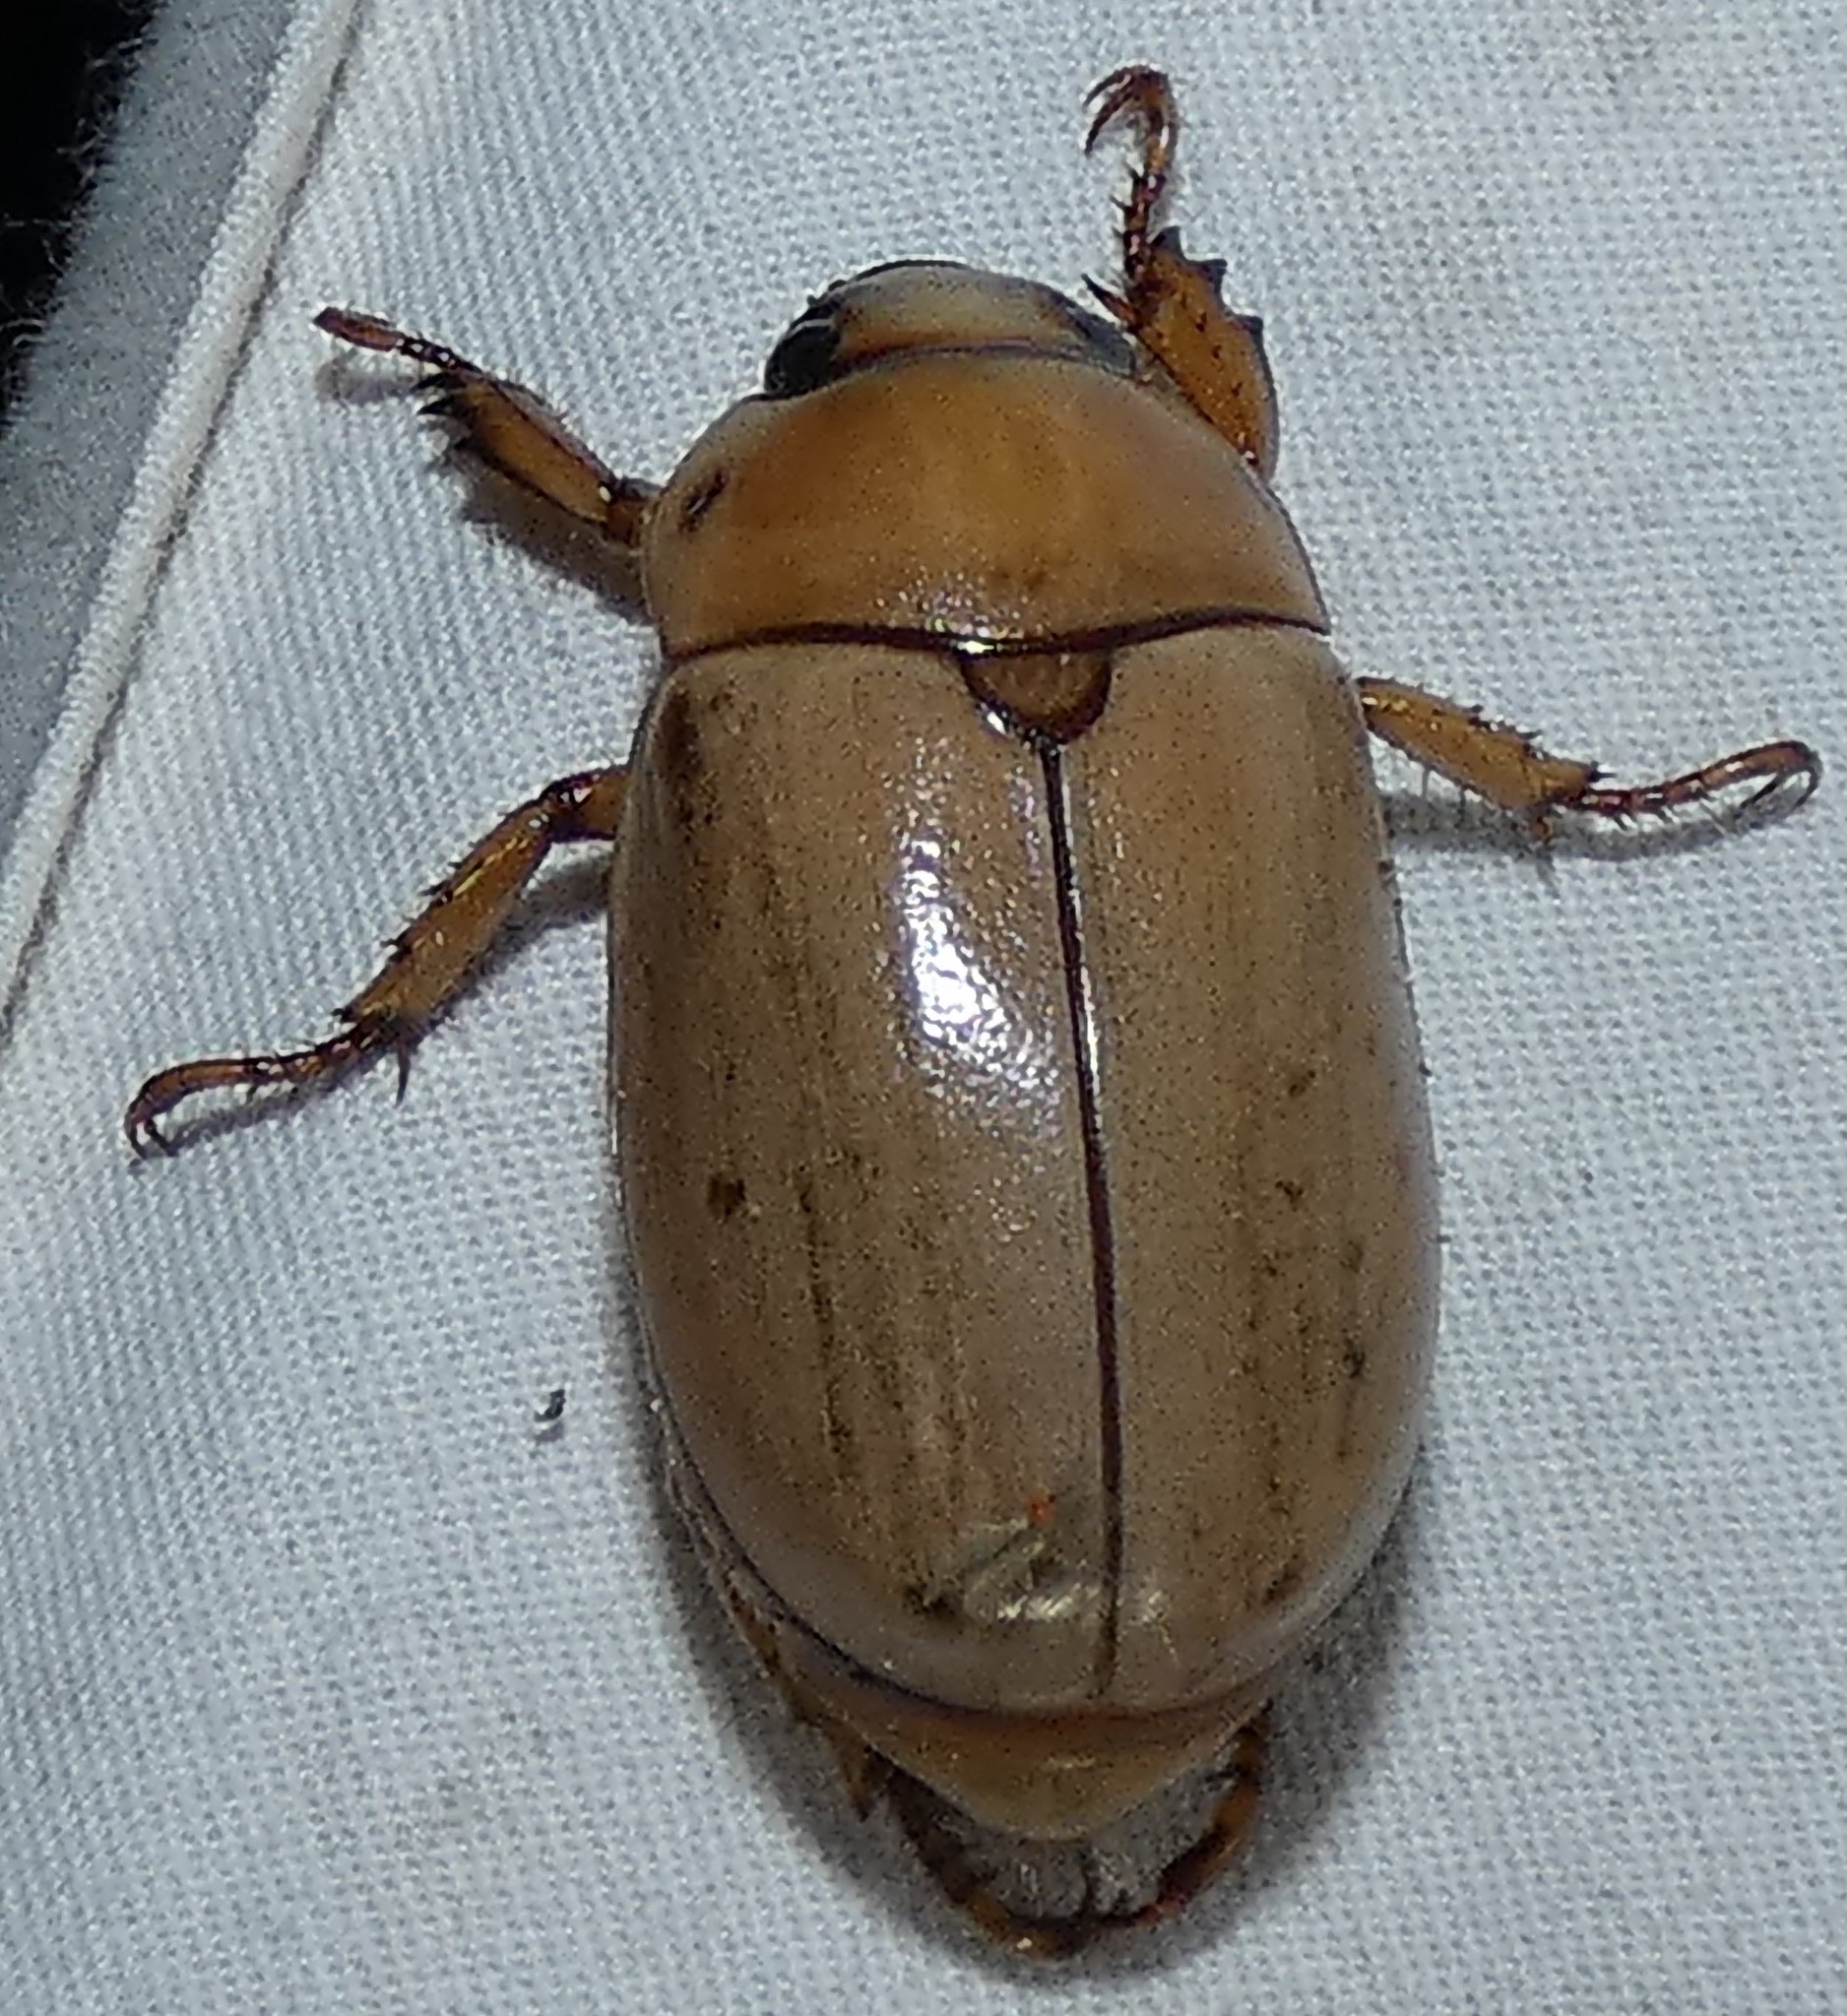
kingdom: Animalia
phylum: Arthropoda
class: Insecta
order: Coleoptera
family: Scarabaeidae
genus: Pelidnota
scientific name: Pelidnota punctata
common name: Grapevine beetle
